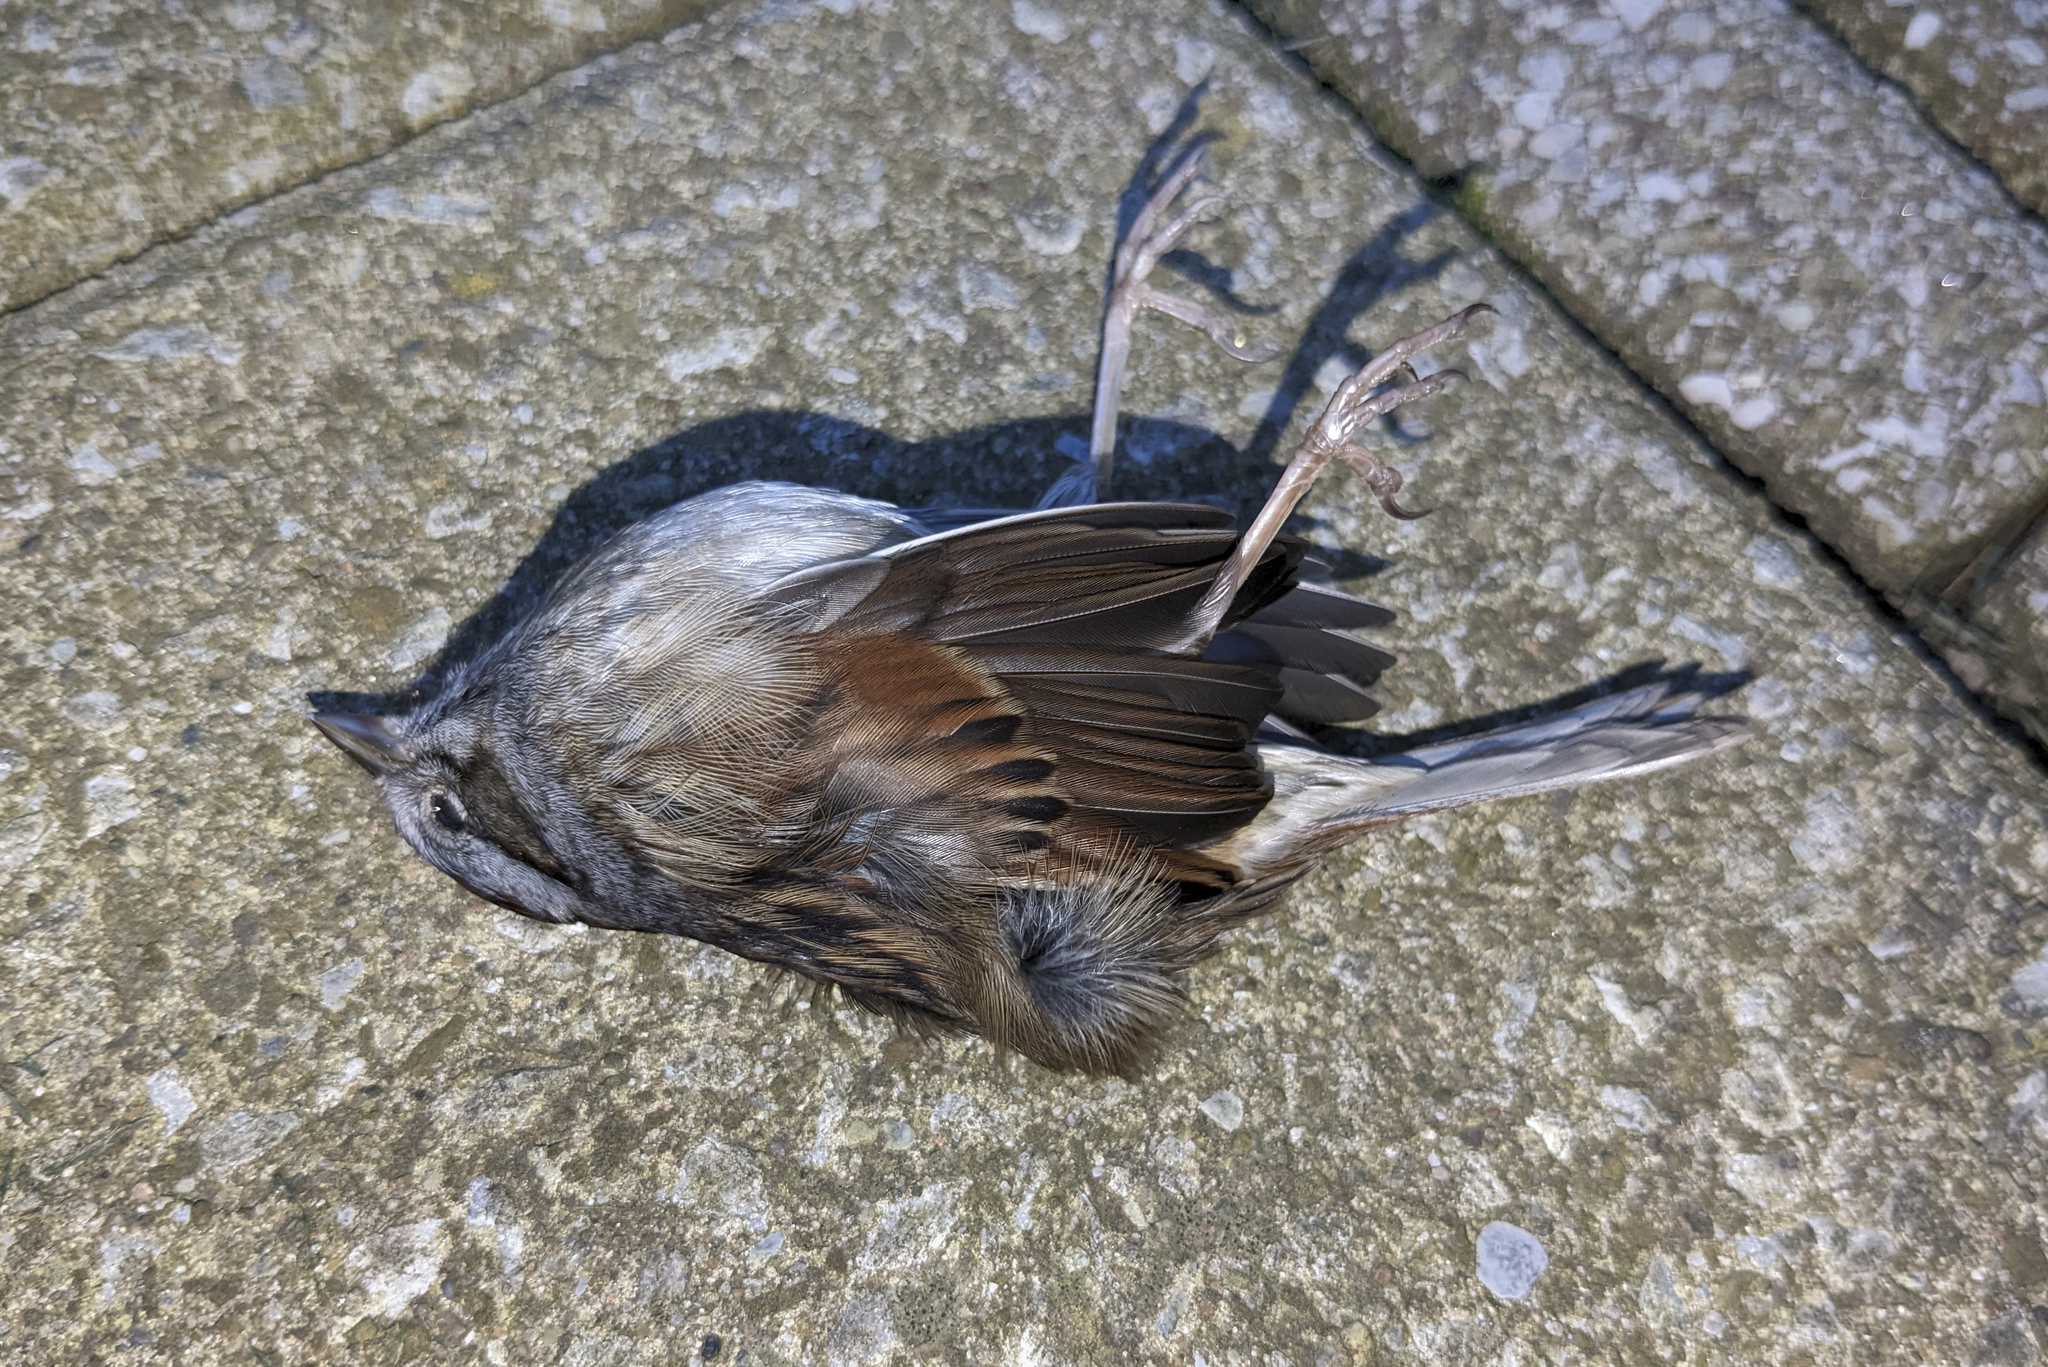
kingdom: Animalia
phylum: Chordata
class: Aves
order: Passeriformes
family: Passerellidae
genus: Melospiza
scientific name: Melospiza georgiana
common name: Swamp sparrow
